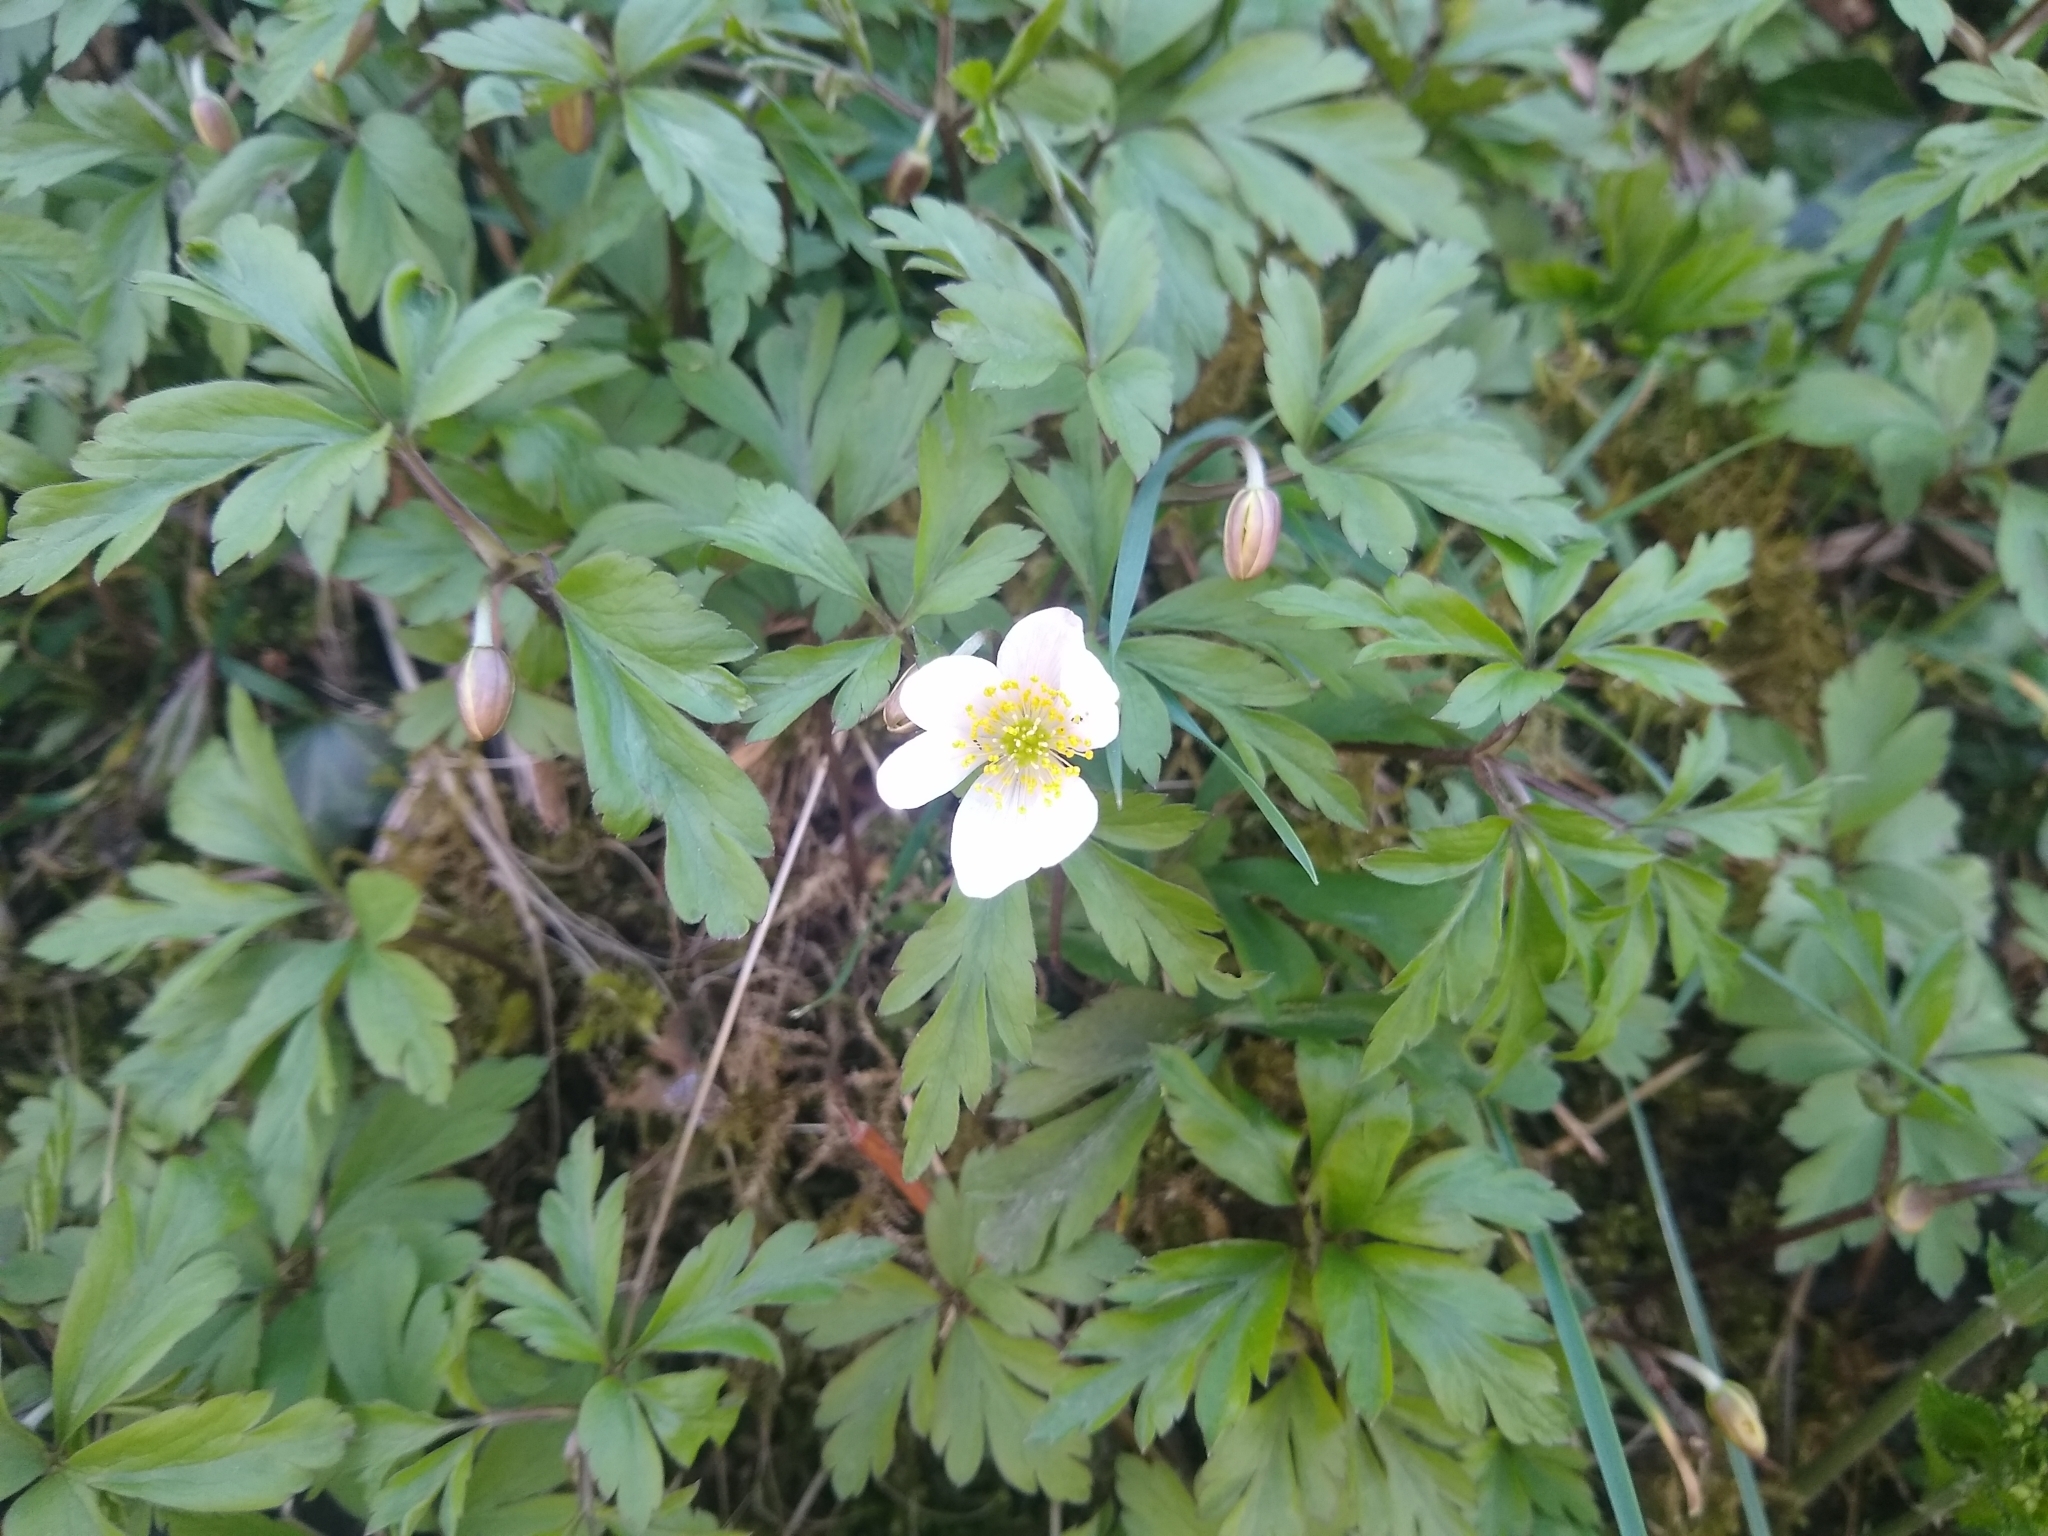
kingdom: Plantae
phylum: Tracheophyta
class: Magnoliopsida
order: Ranunculales
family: Ranunculaceae
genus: Anemone
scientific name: Anemone nemorosa
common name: Wood anemone
